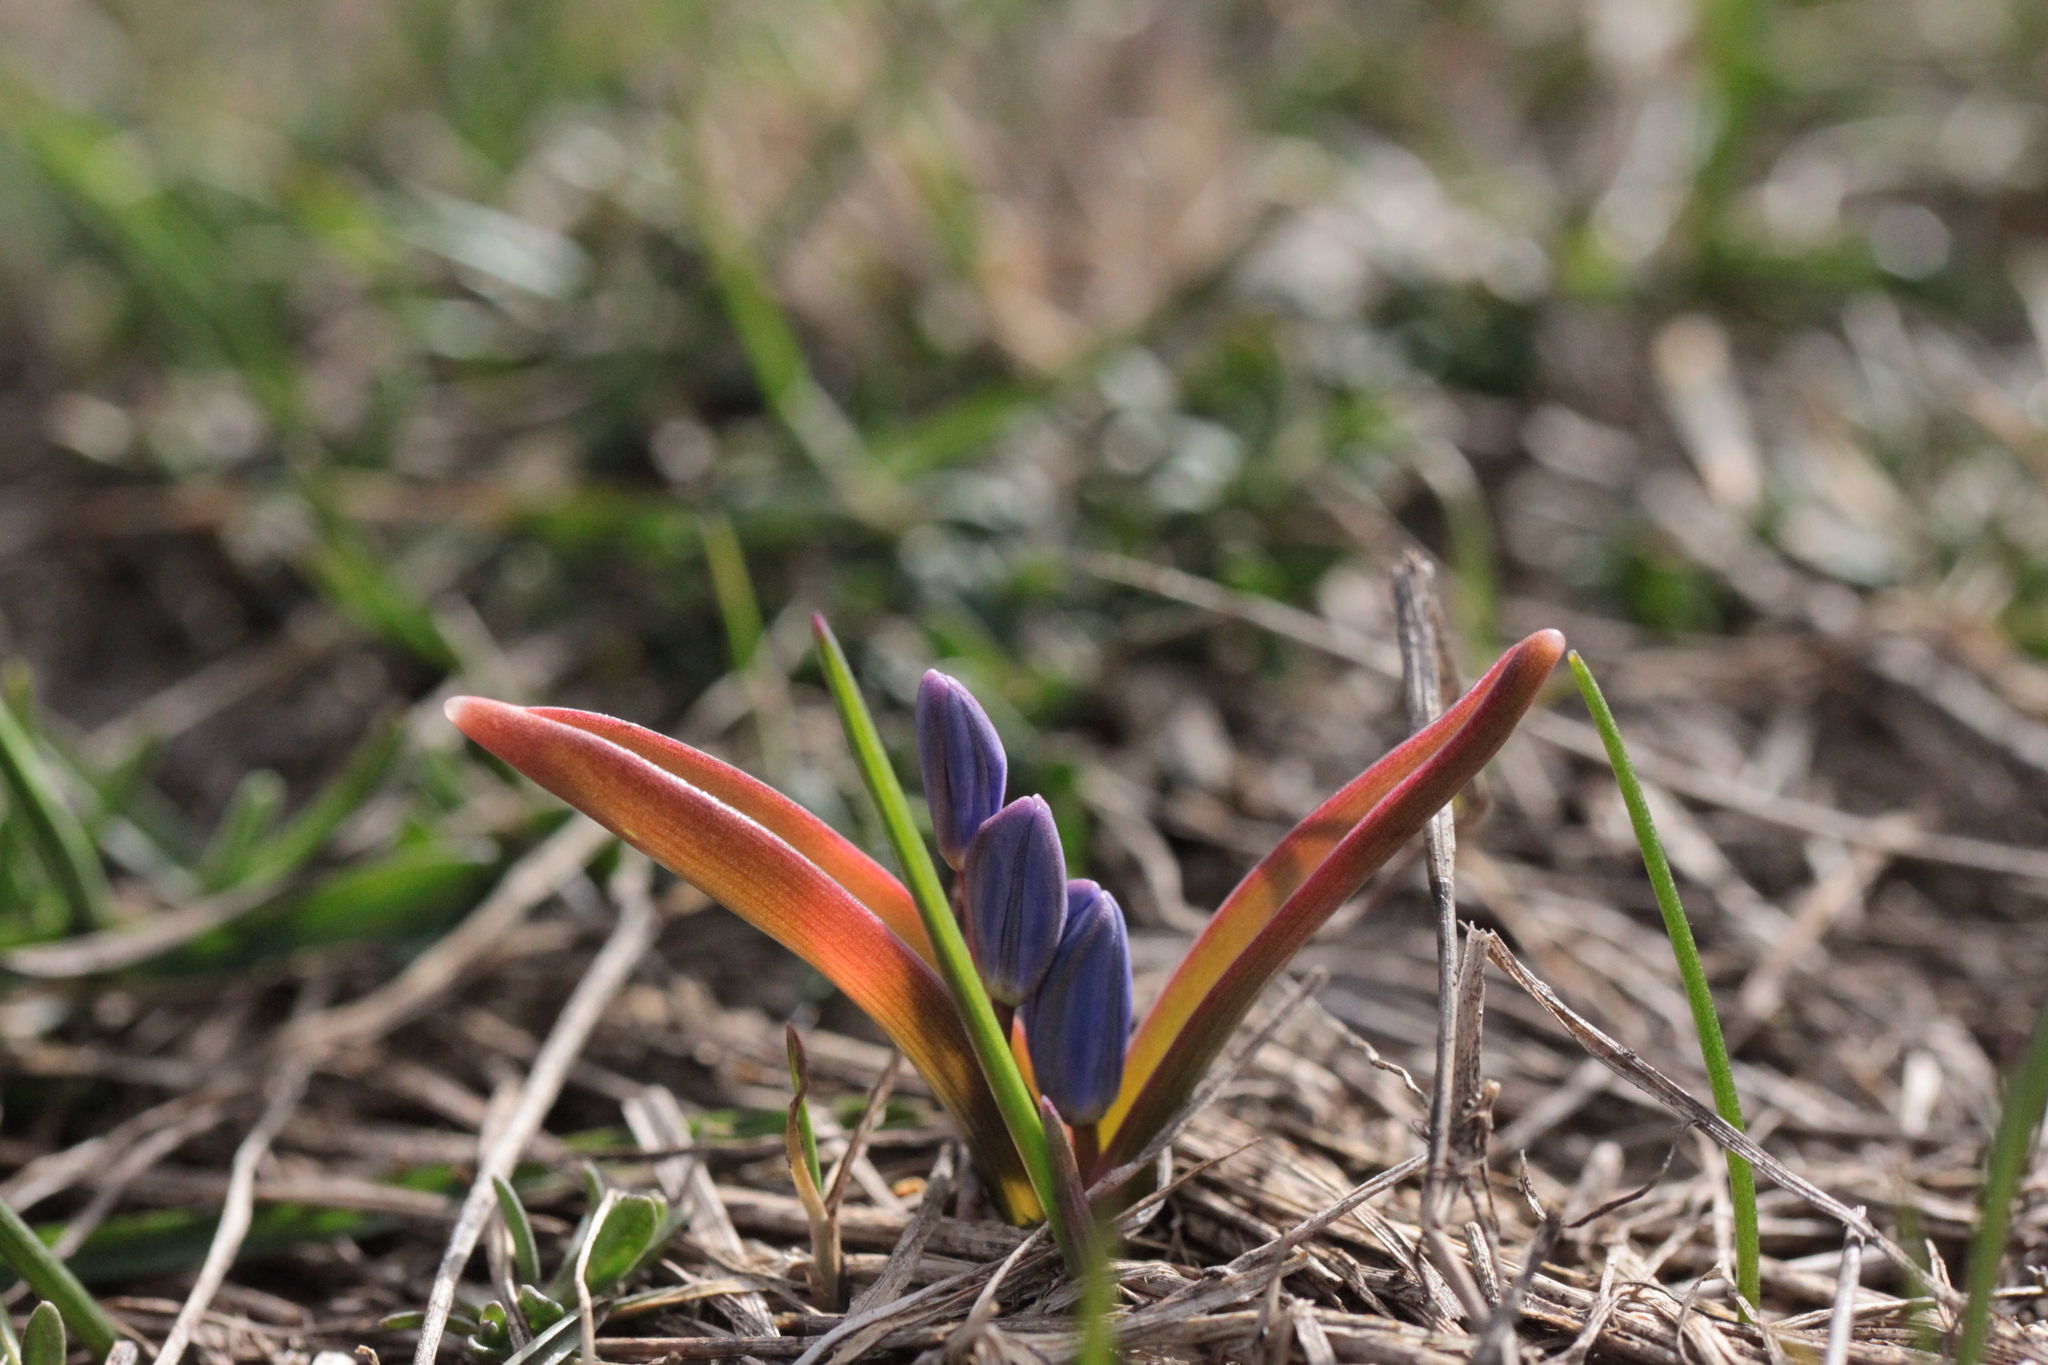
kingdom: Plantae
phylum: Tracheophyta
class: Liliopsida
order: Asparagales
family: Asparagaceae
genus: Scilla
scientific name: Scilla bifolia
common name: Alpine squill
